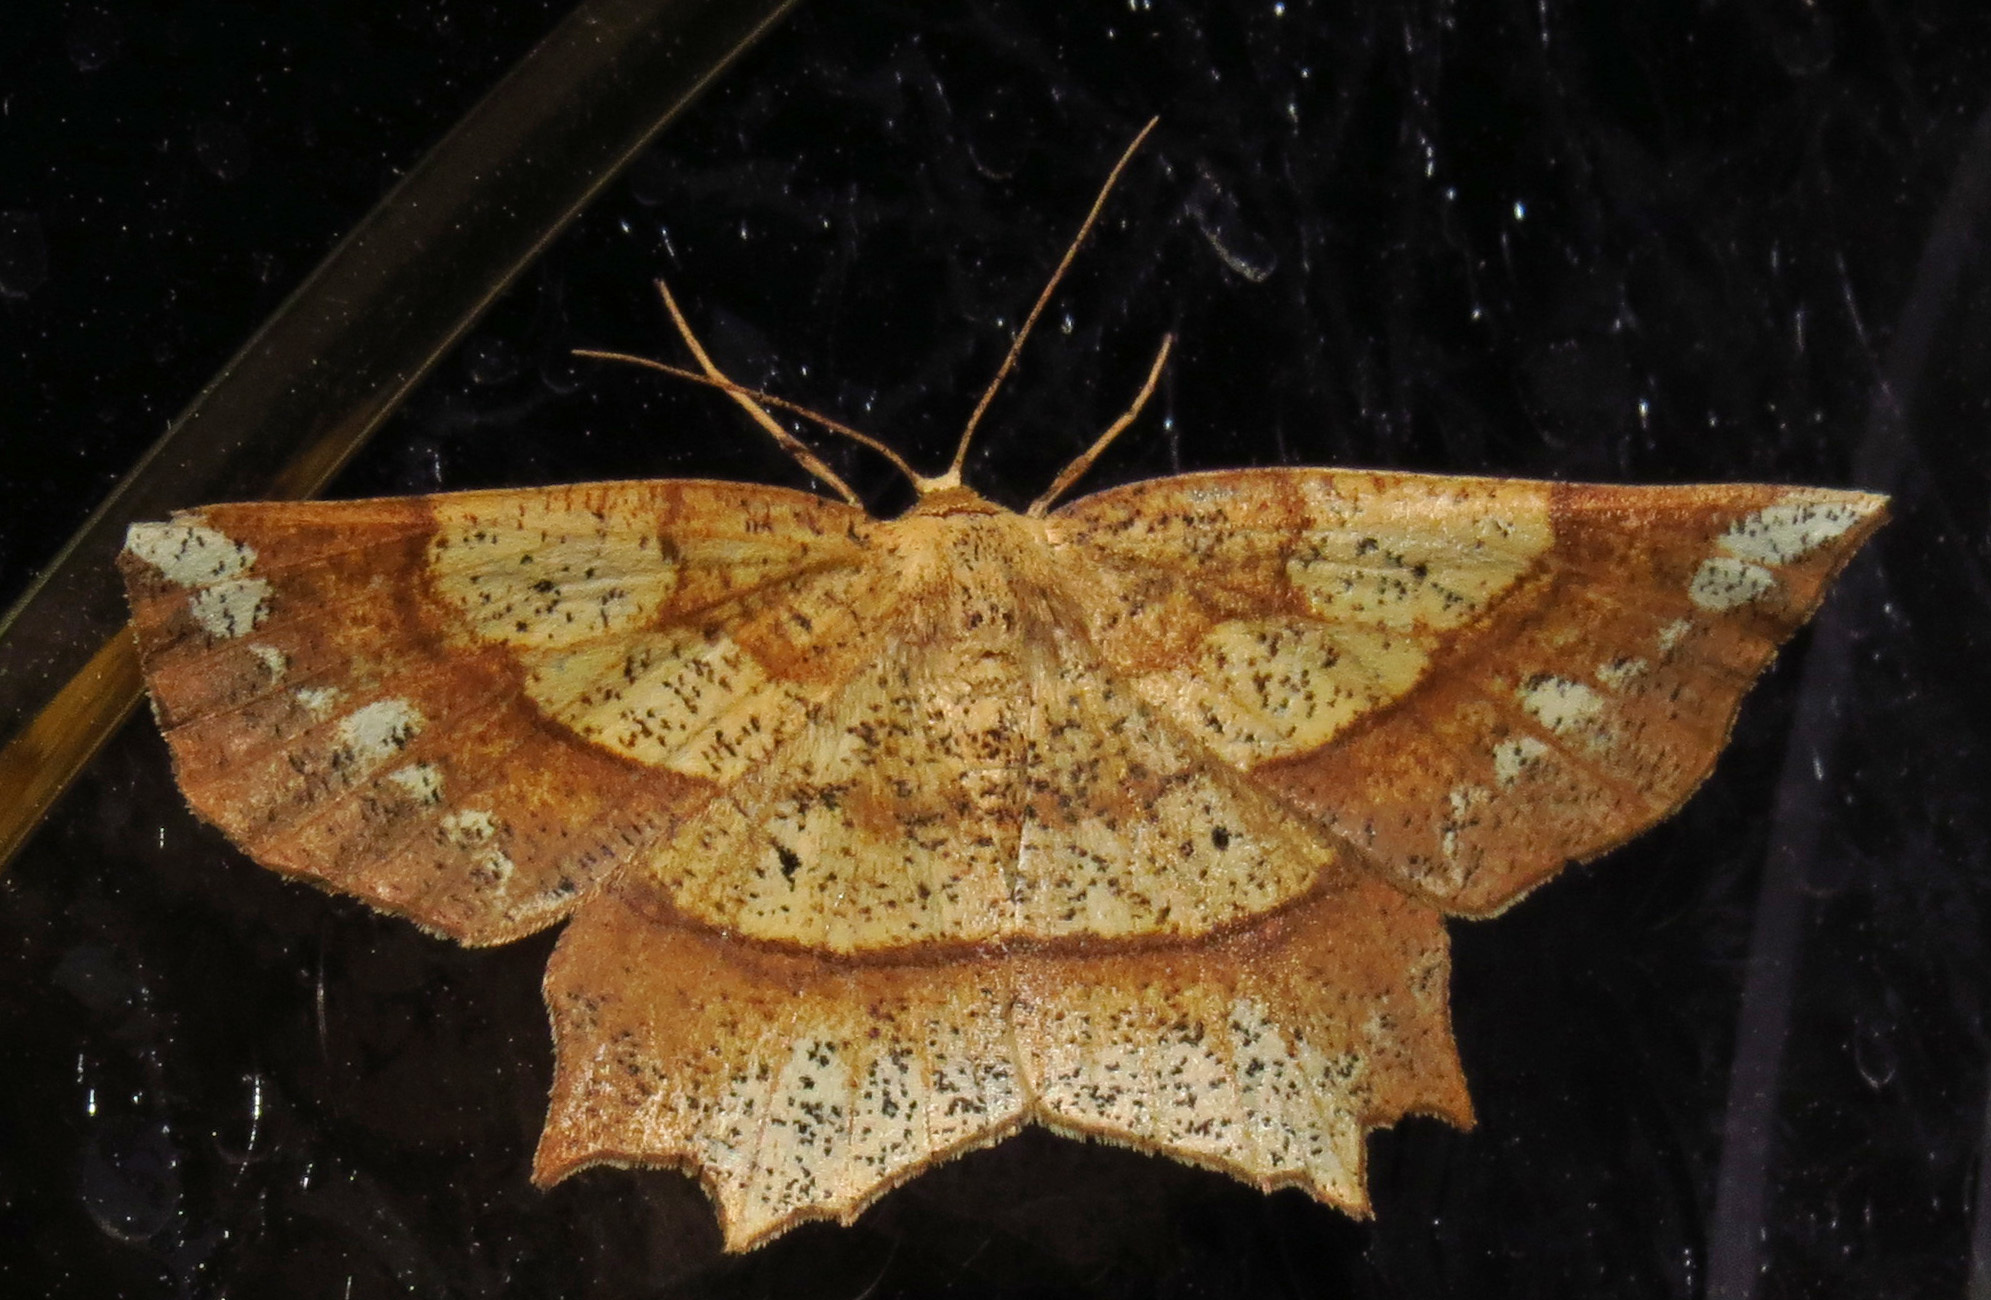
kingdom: Animalia
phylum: Arthropoda
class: Insecta
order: Lepidoptera
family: Geometridae
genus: Euchlaena
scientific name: Euchlaena amoenaria
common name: Deep yellow euchlaena
